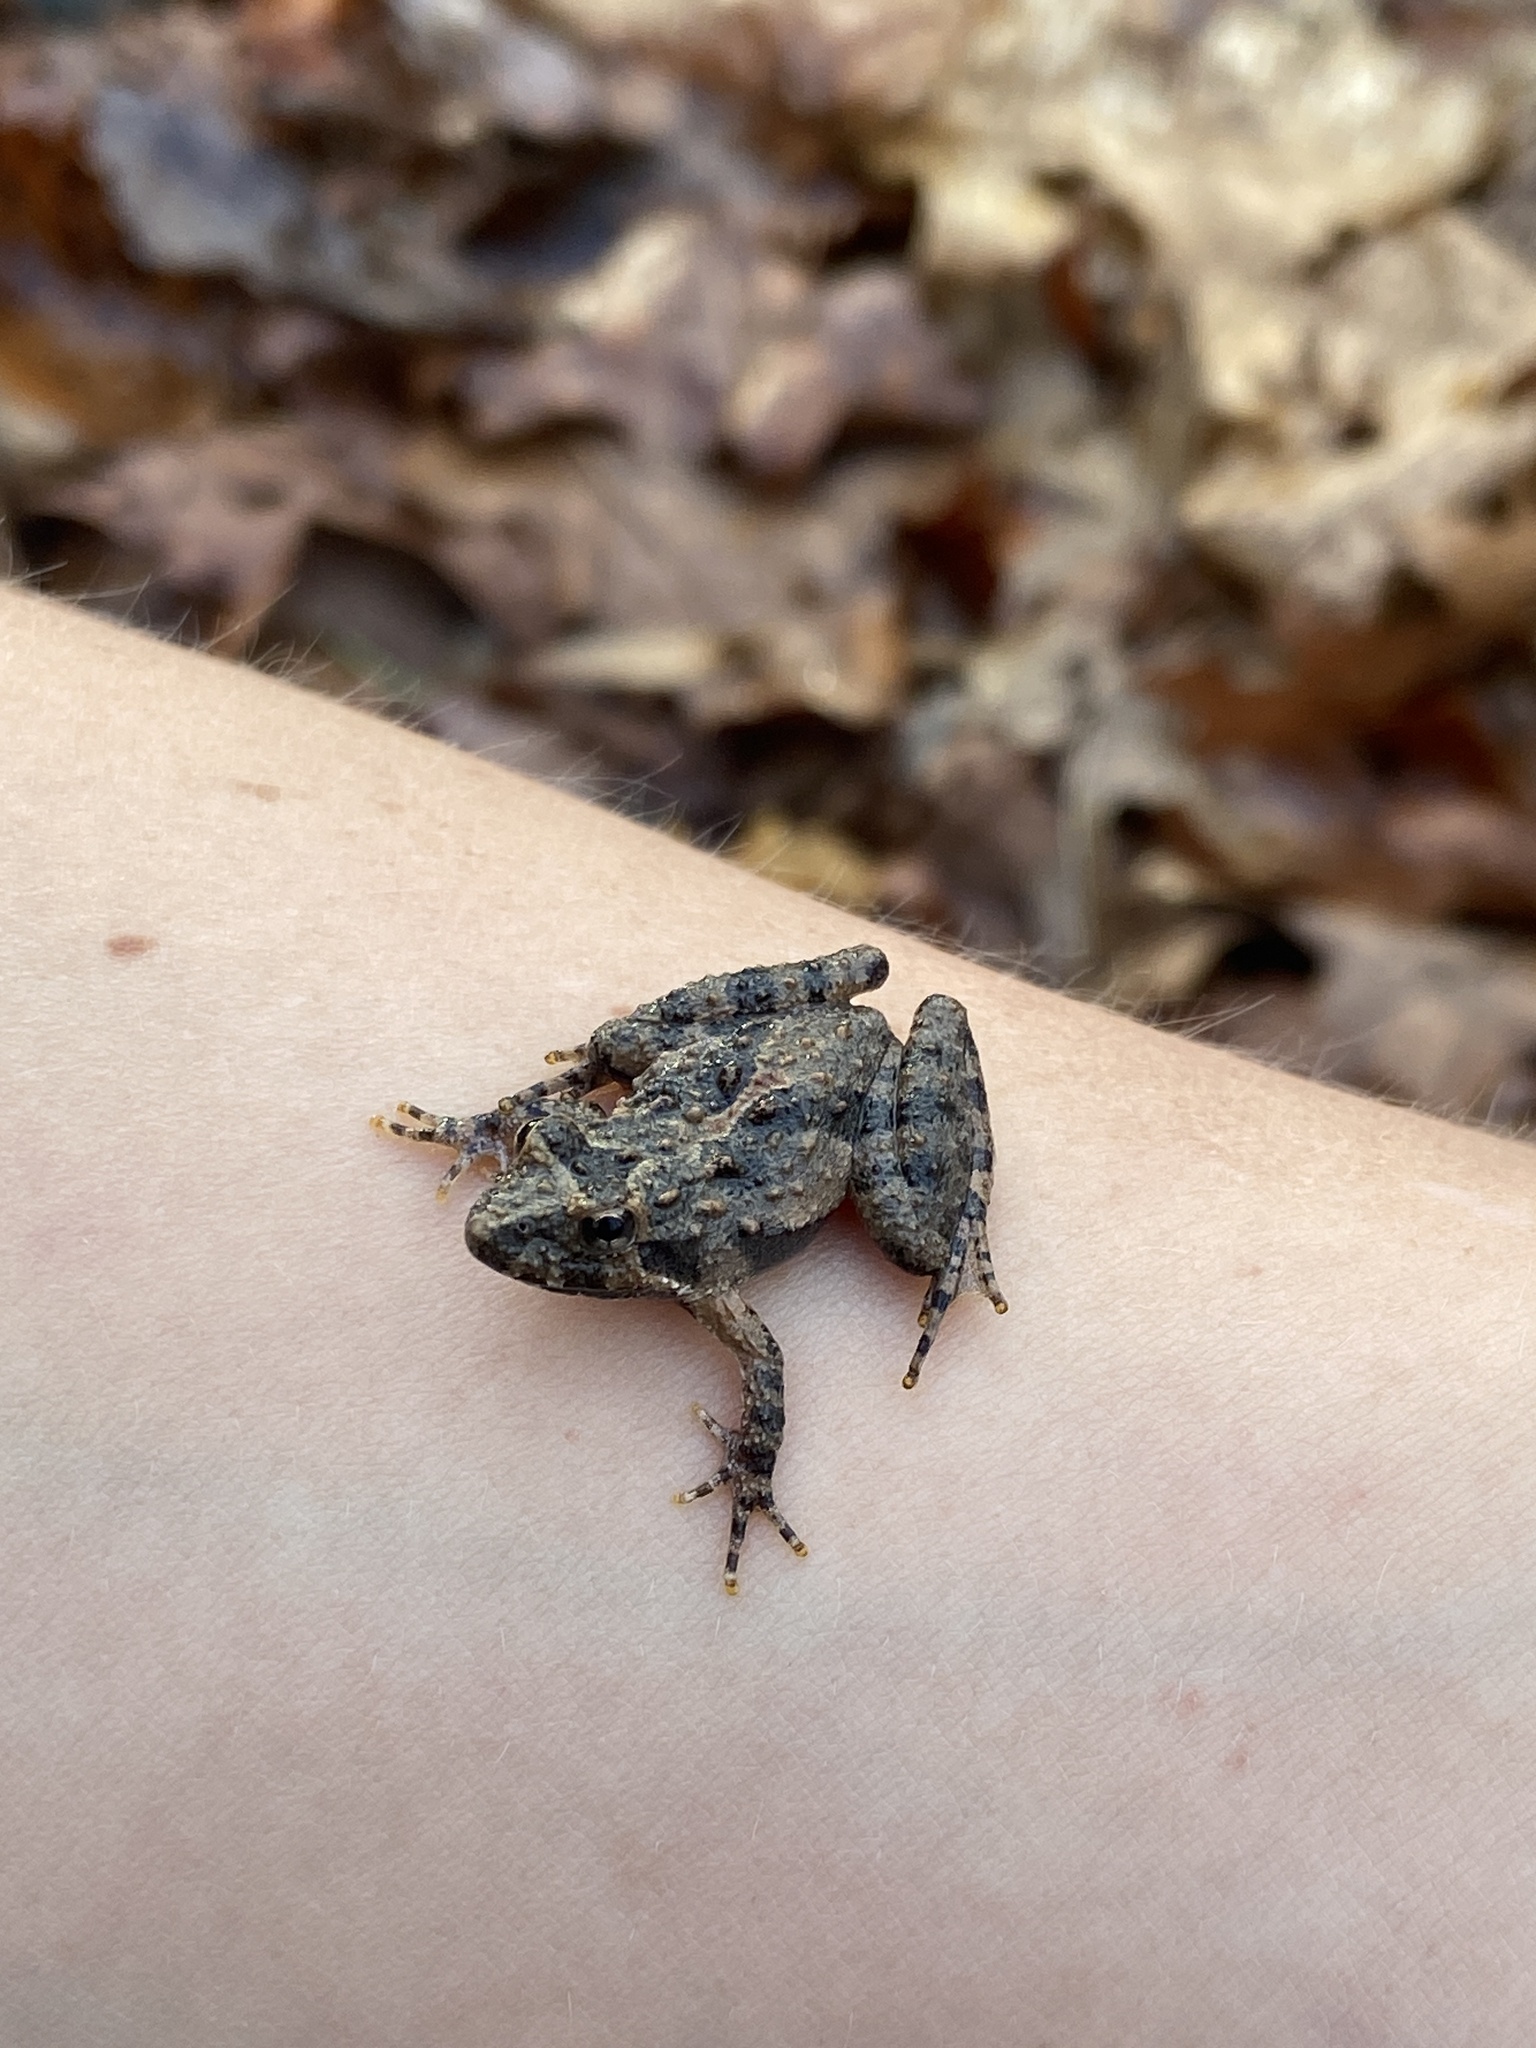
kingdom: Animalia
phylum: Chordata
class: Amphibia
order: Anura
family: Hylidae
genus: Acris
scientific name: Acris crepitans
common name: Northern cricket frog
